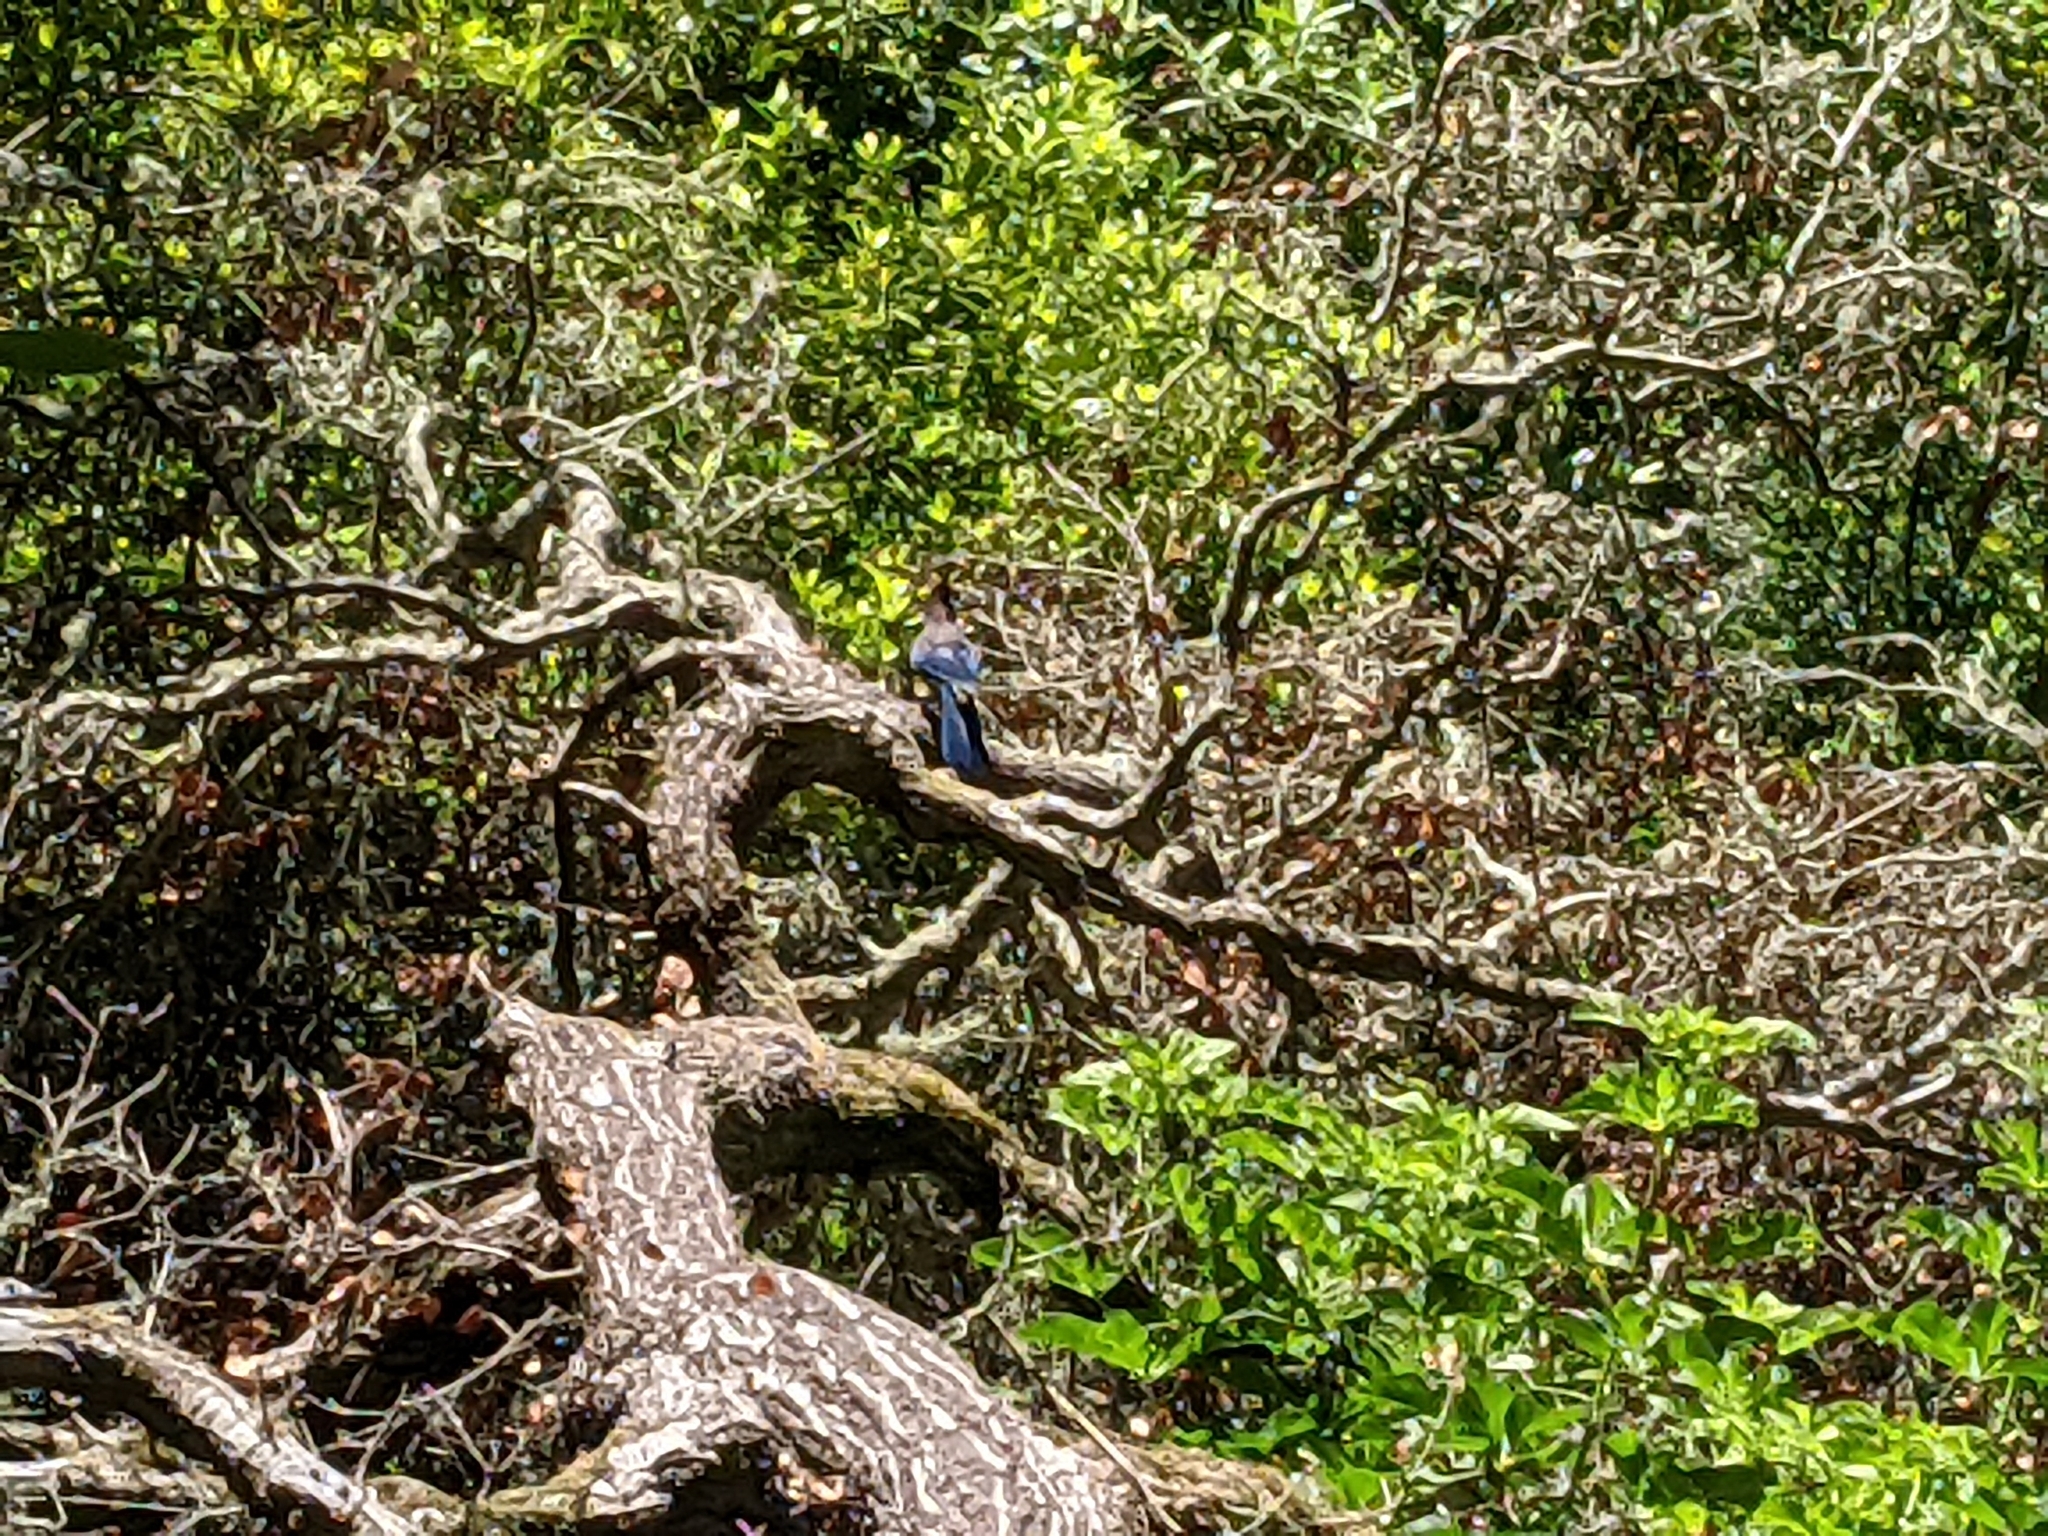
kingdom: Animalia
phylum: Chordata
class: Aves
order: Passeriformes
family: Corvidae
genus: Cyanocitta
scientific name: Cyanocitta stelleri
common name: Steller's jay
